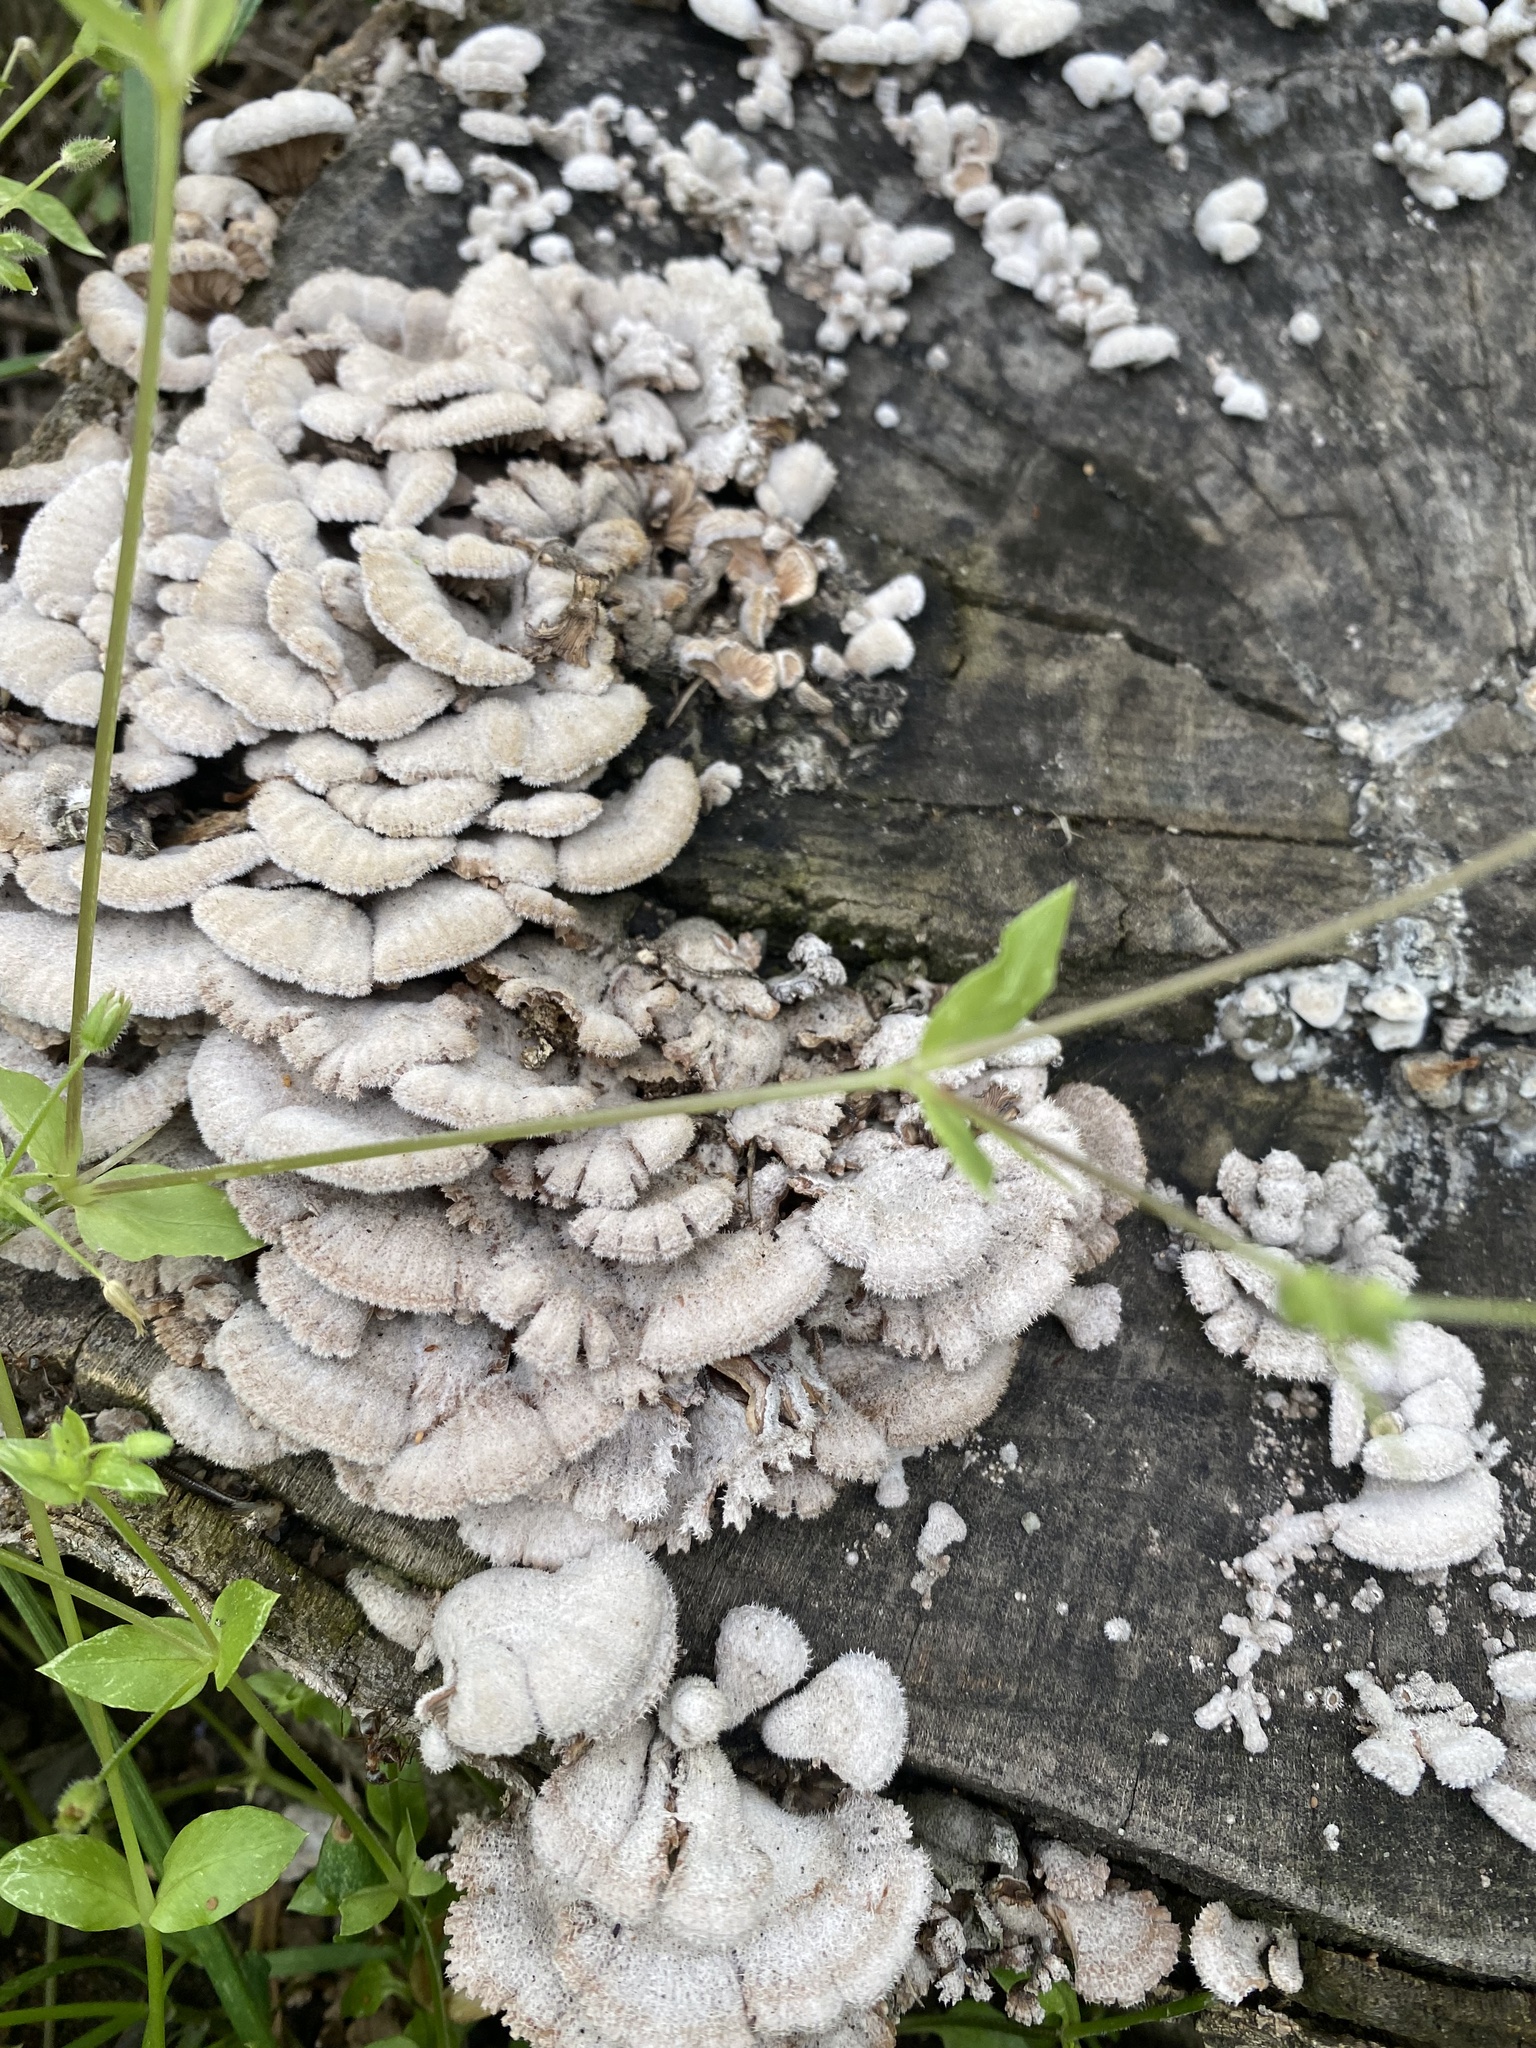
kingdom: Fungi
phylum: Basidiomycota
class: Agaricomycetes
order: Agaricales
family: Schizophyllaceae
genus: Schizophyllum
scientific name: Schizophyllum commune
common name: Common porecrust
